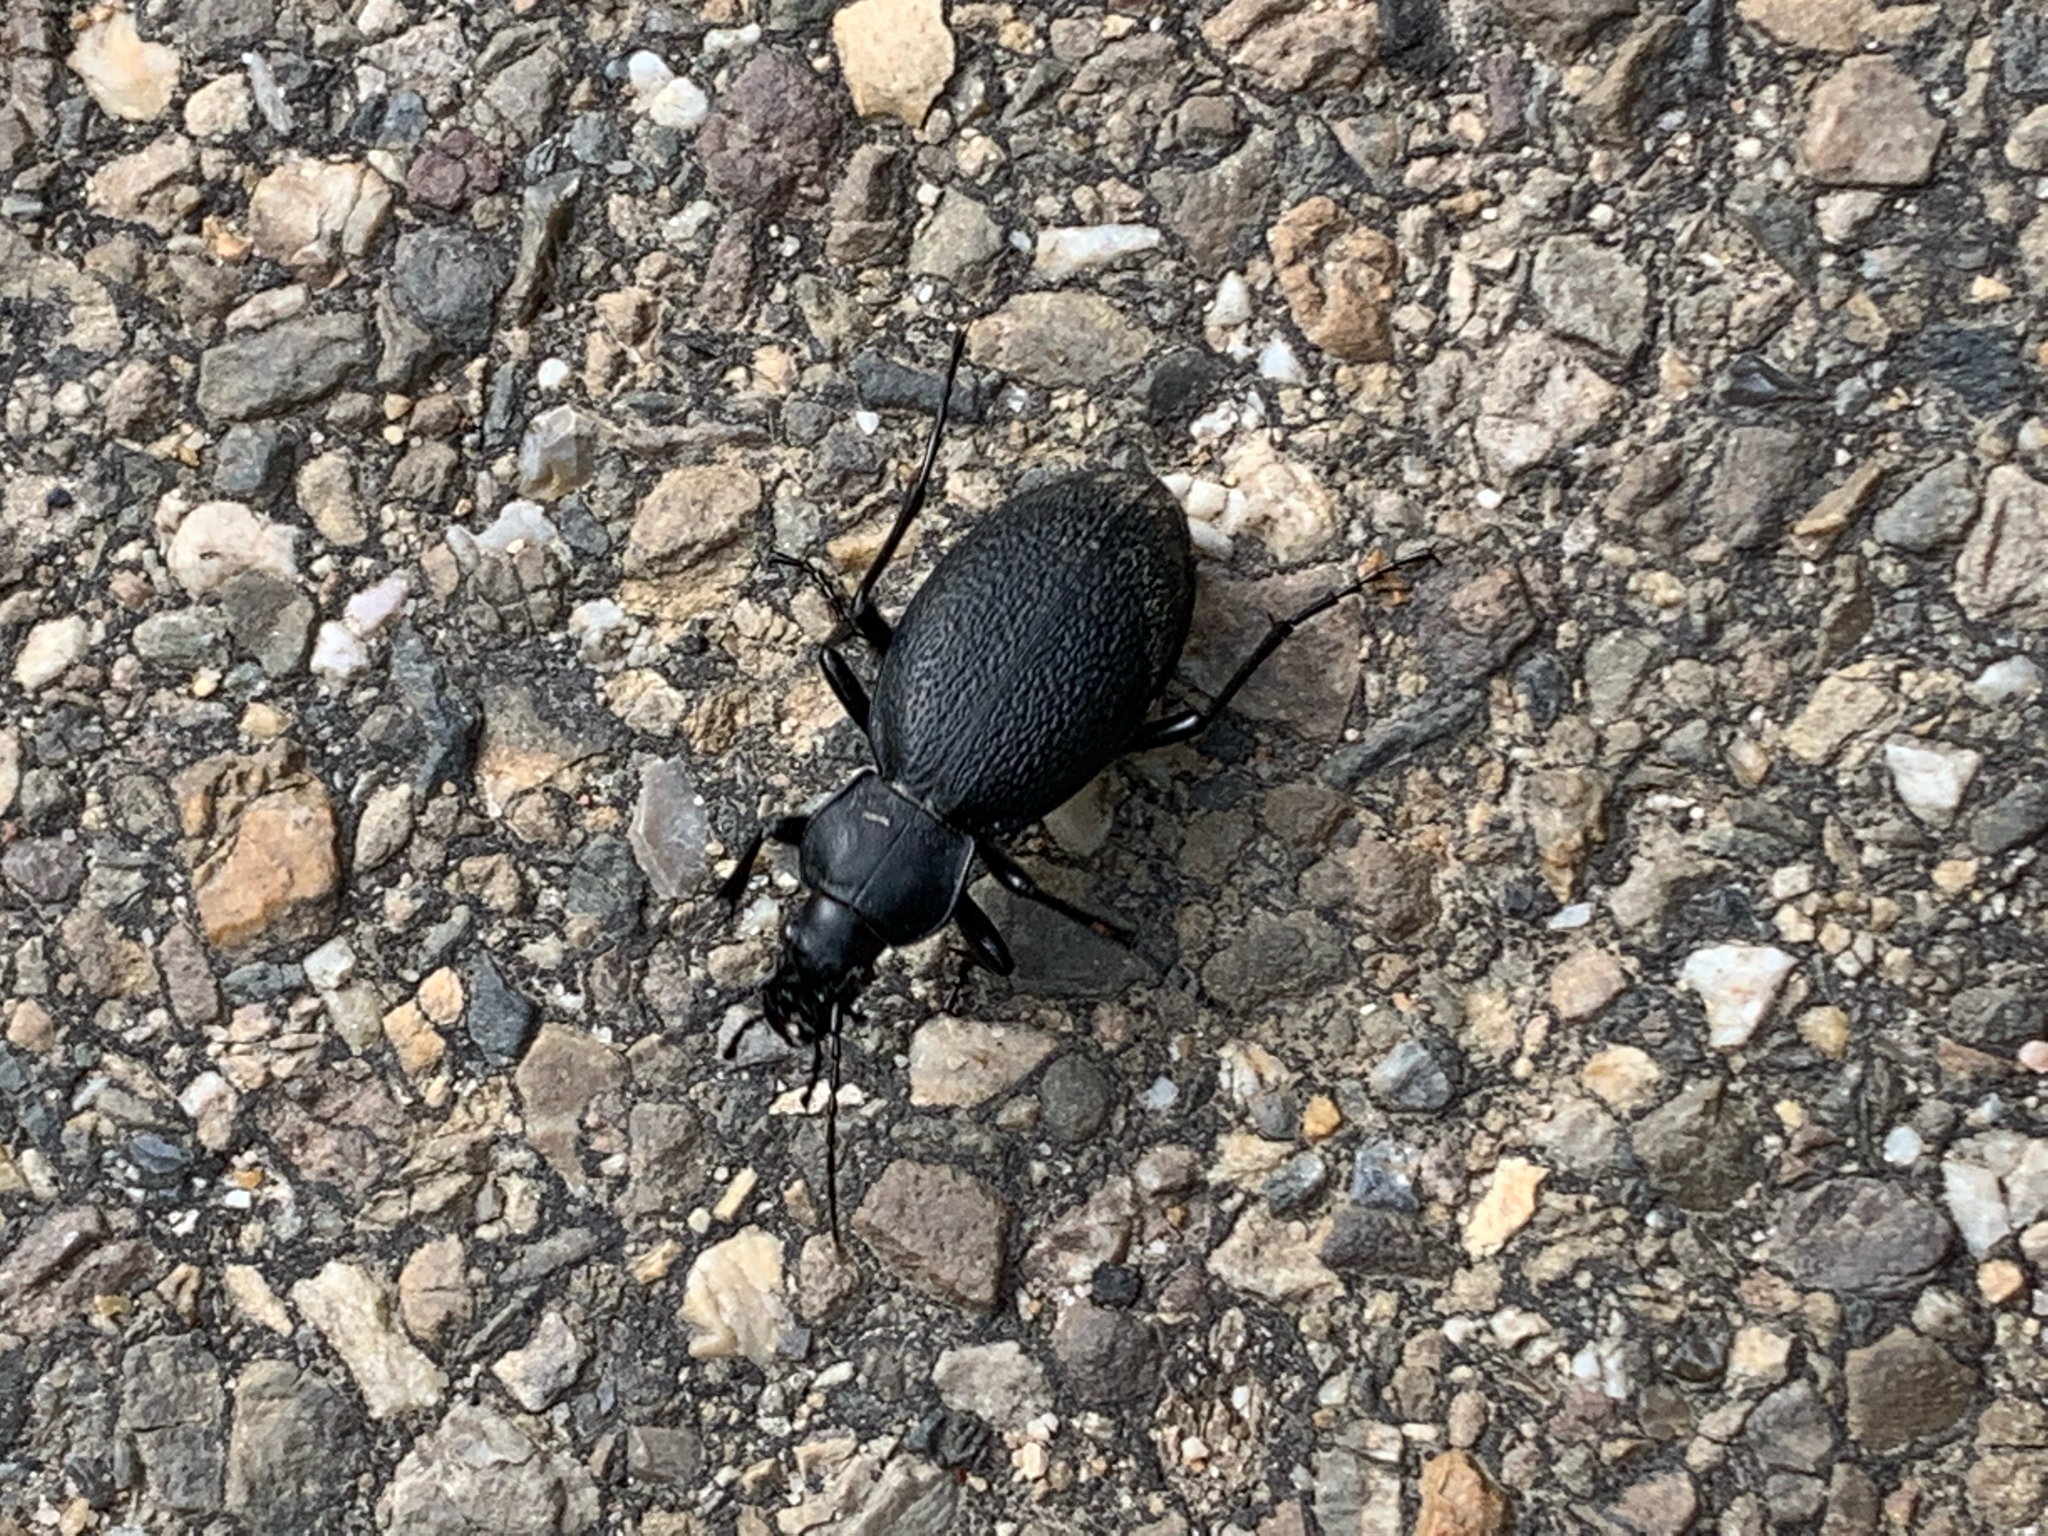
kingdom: Animalia
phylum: Arthropoda
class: Insecta
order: Coleoptera
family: Carabidae
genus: Carabus
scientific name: Carabus coriaceus
